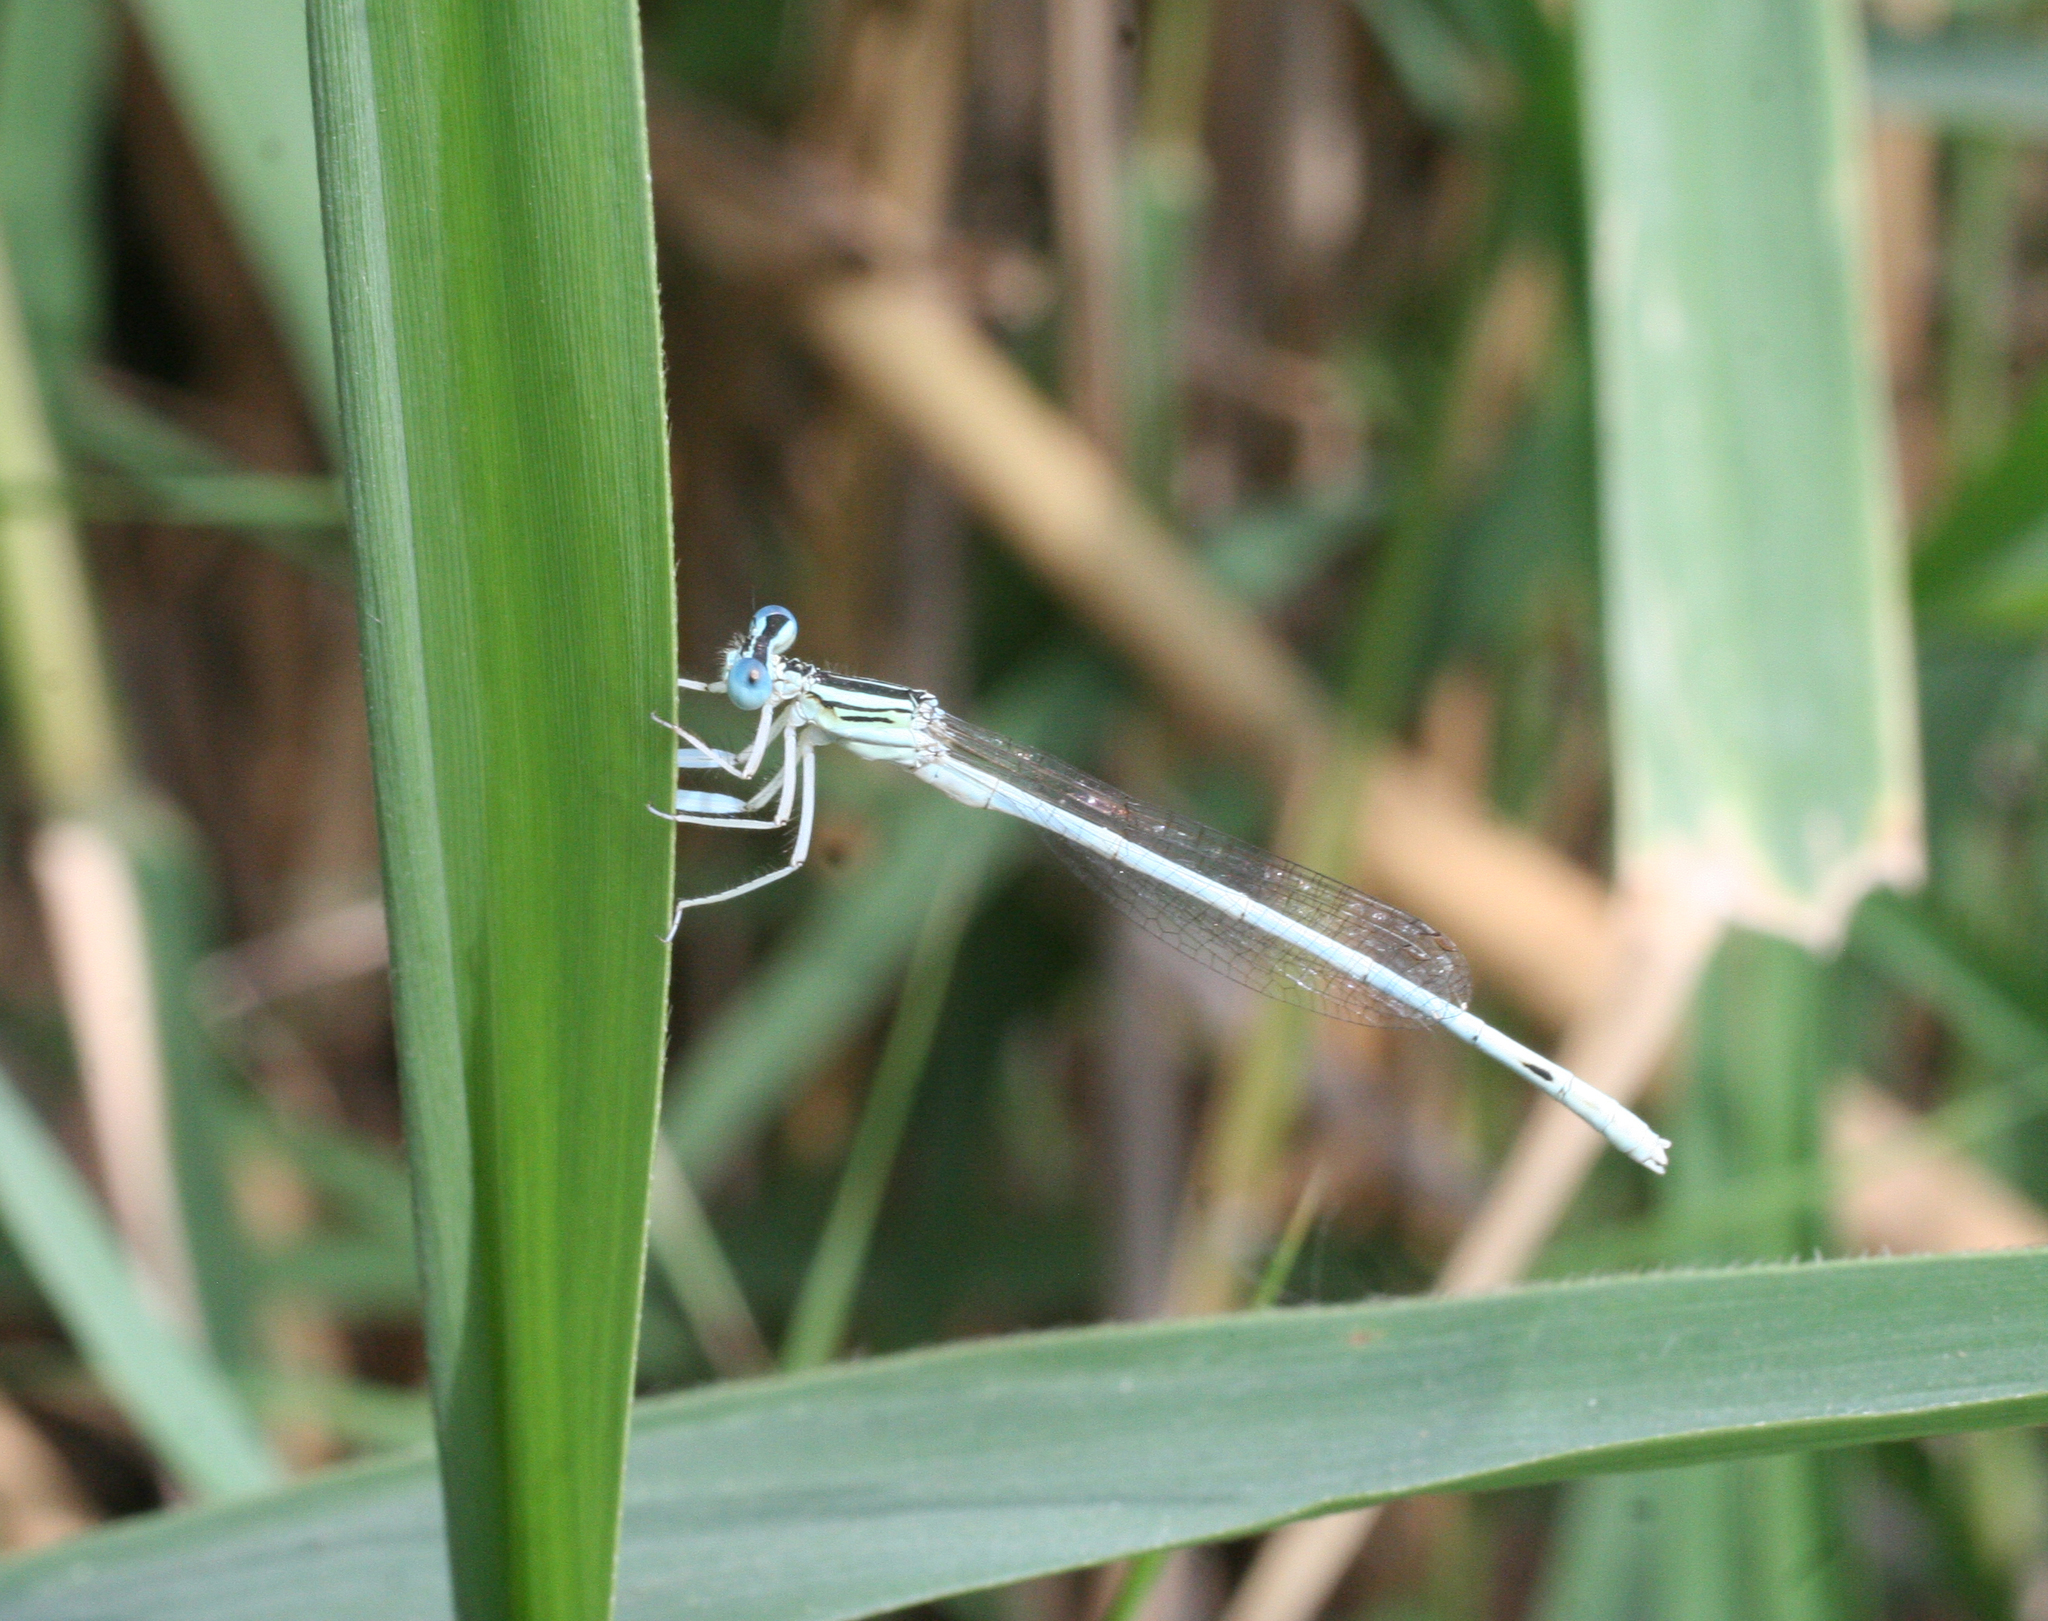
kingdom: Animalia
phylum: Arthropoda
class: Insecta
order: Odonata
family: Platycnemididae
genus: Platycnemis
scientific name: Platycnemis dealbata
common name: Ivory featherleg
